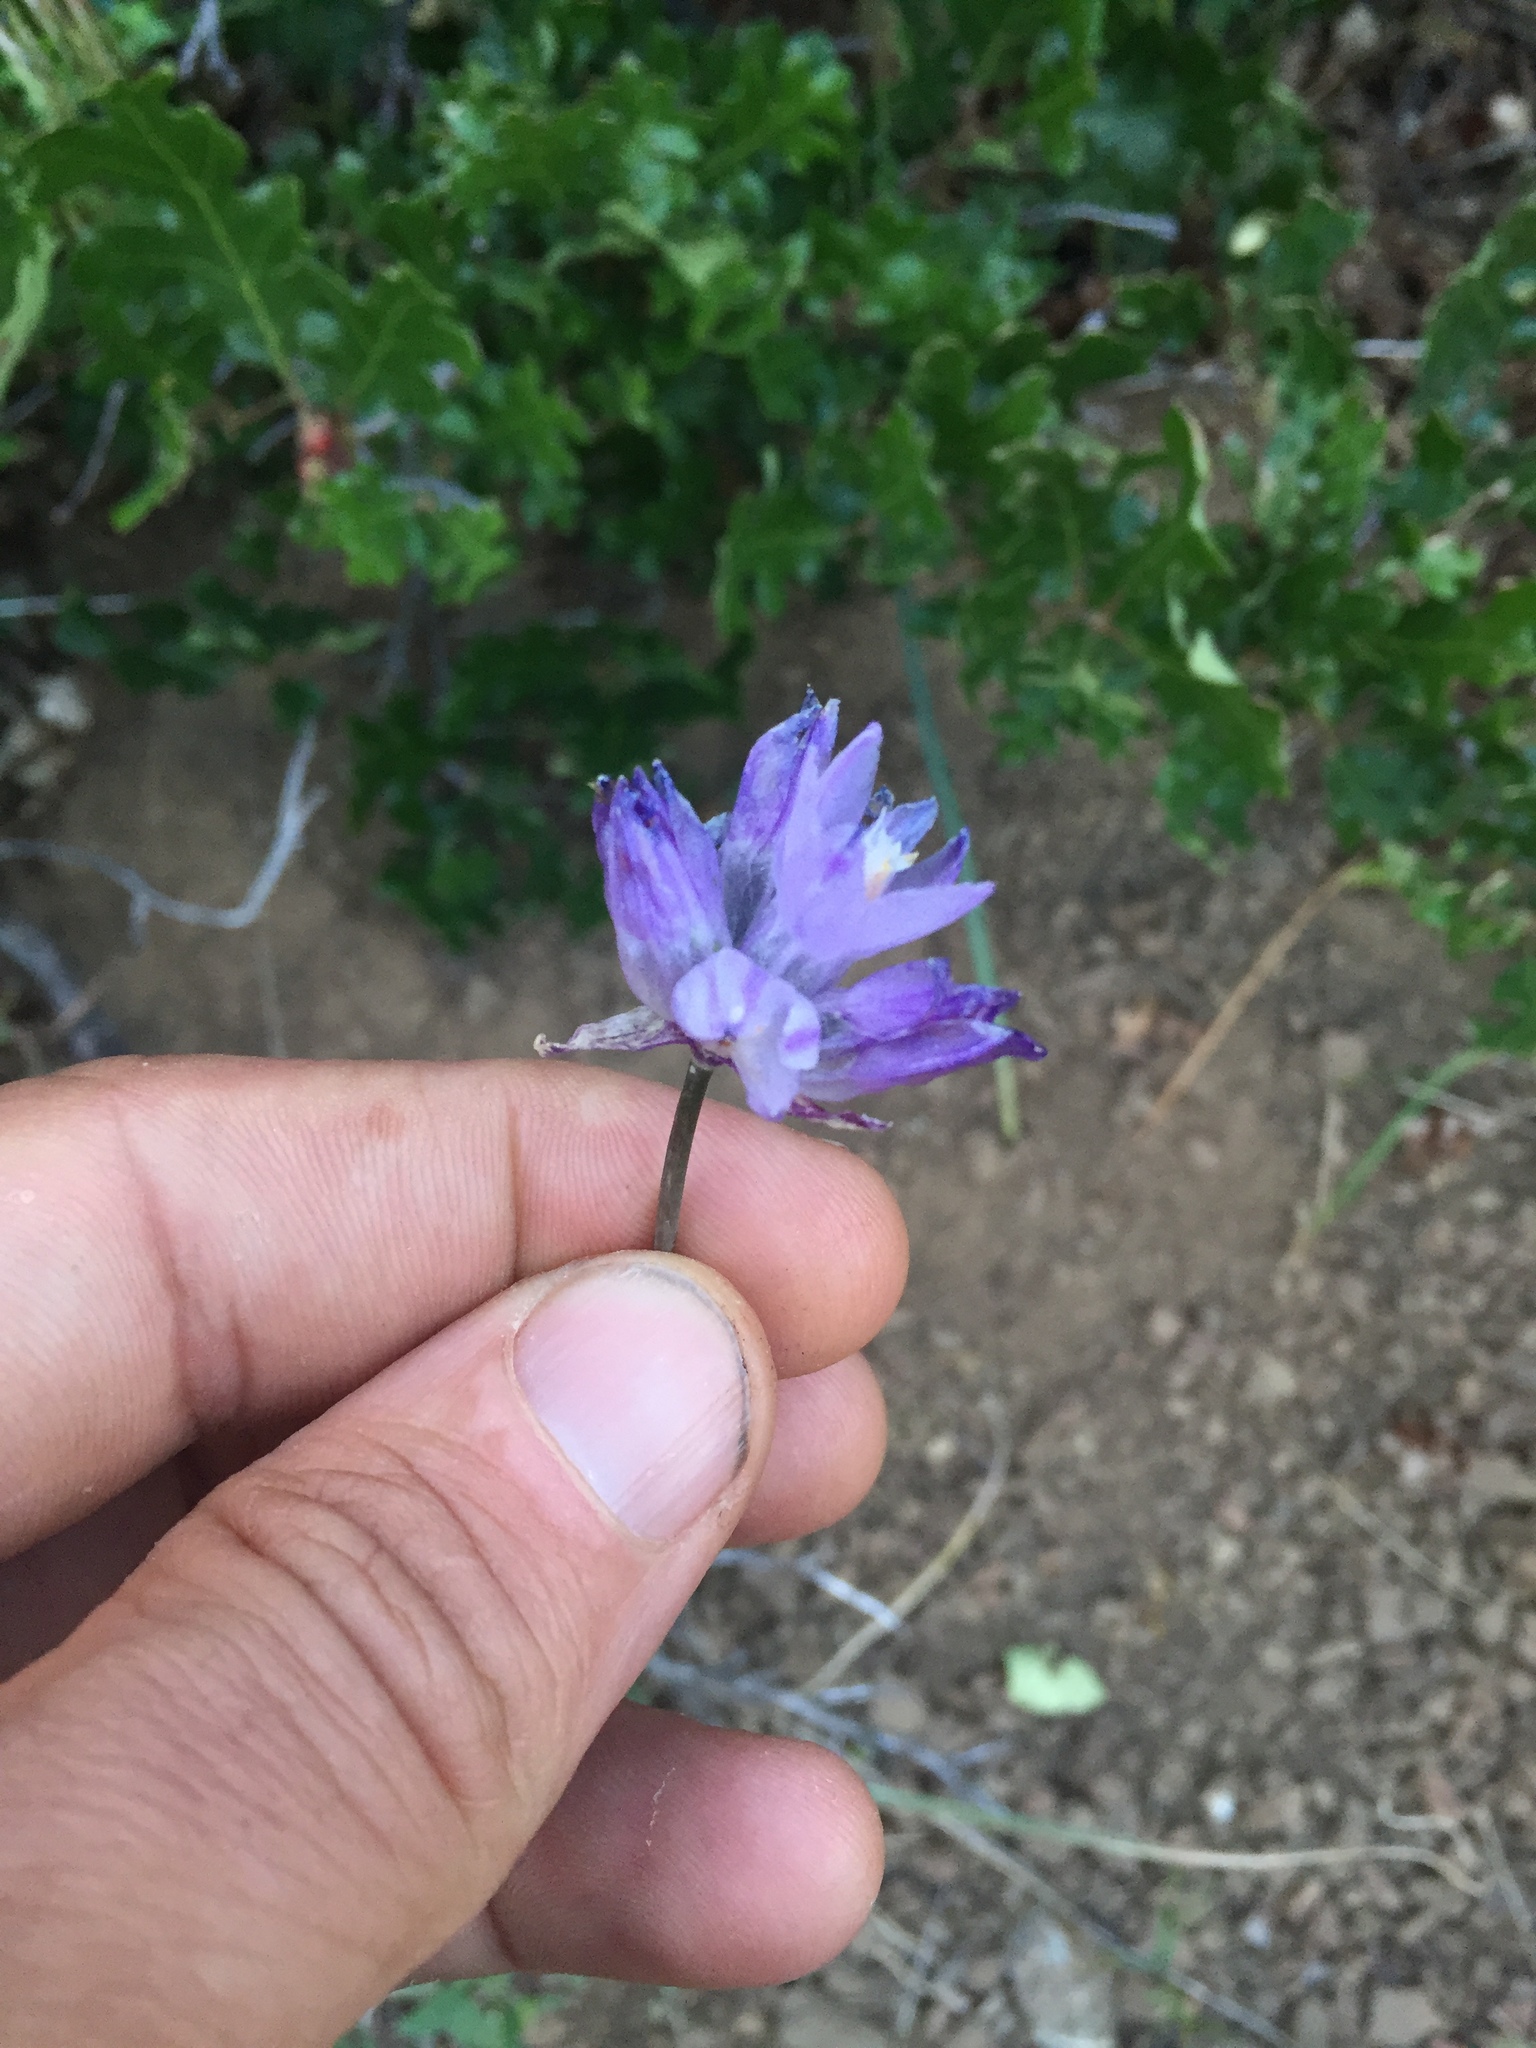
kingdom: Plantae
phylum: Tracheophyta
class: Liliopsida
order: Asparagales
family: Asparagaceae
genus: Dipterostemon
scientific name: Dipterostemon capitatus
